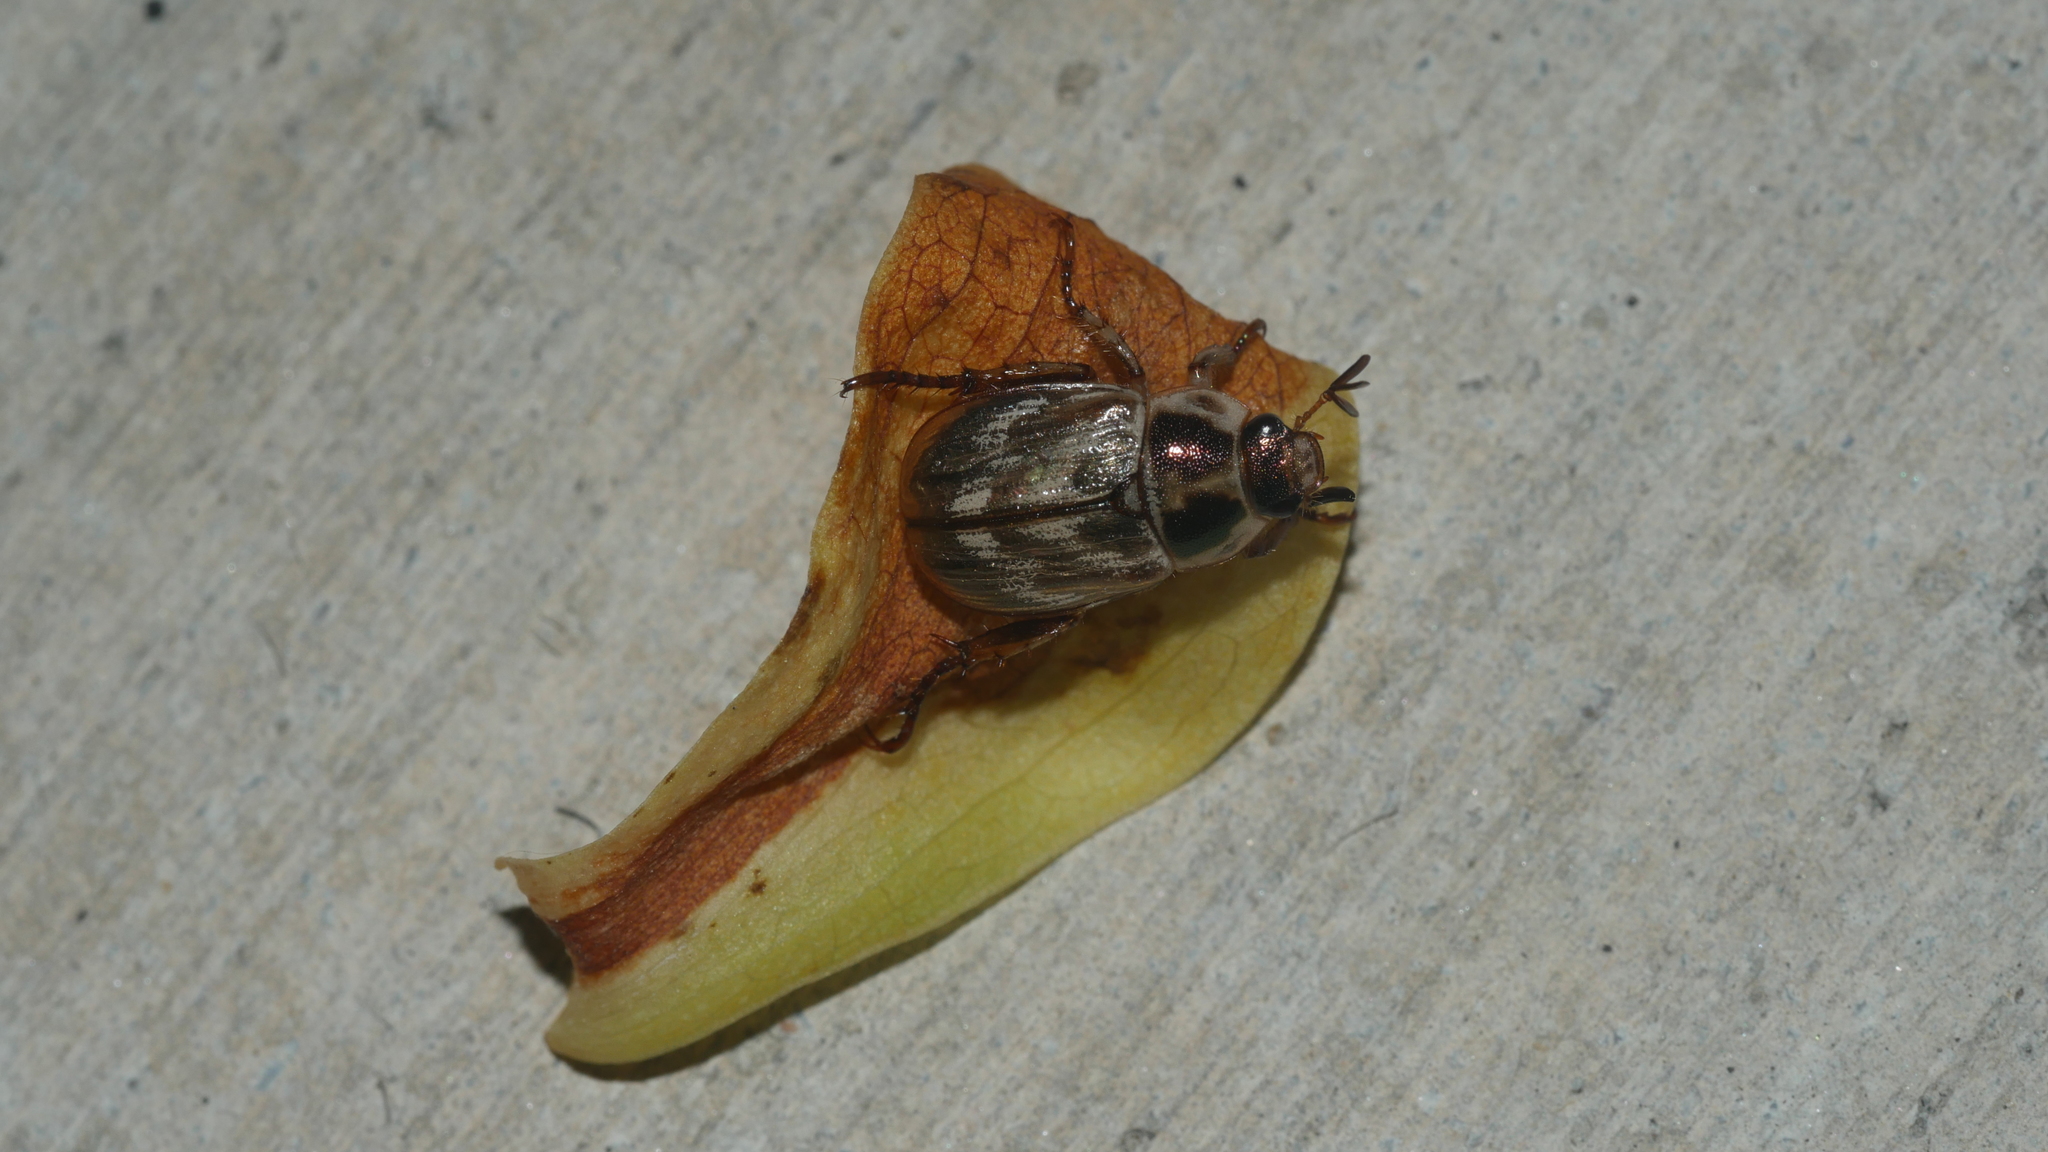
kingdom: Animalia
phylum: Arthropoda
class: Insecta
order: Coleoptera
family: Scarabaeidae
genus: Exomala
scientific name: Exomala orientalis
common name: Oriental beetle
